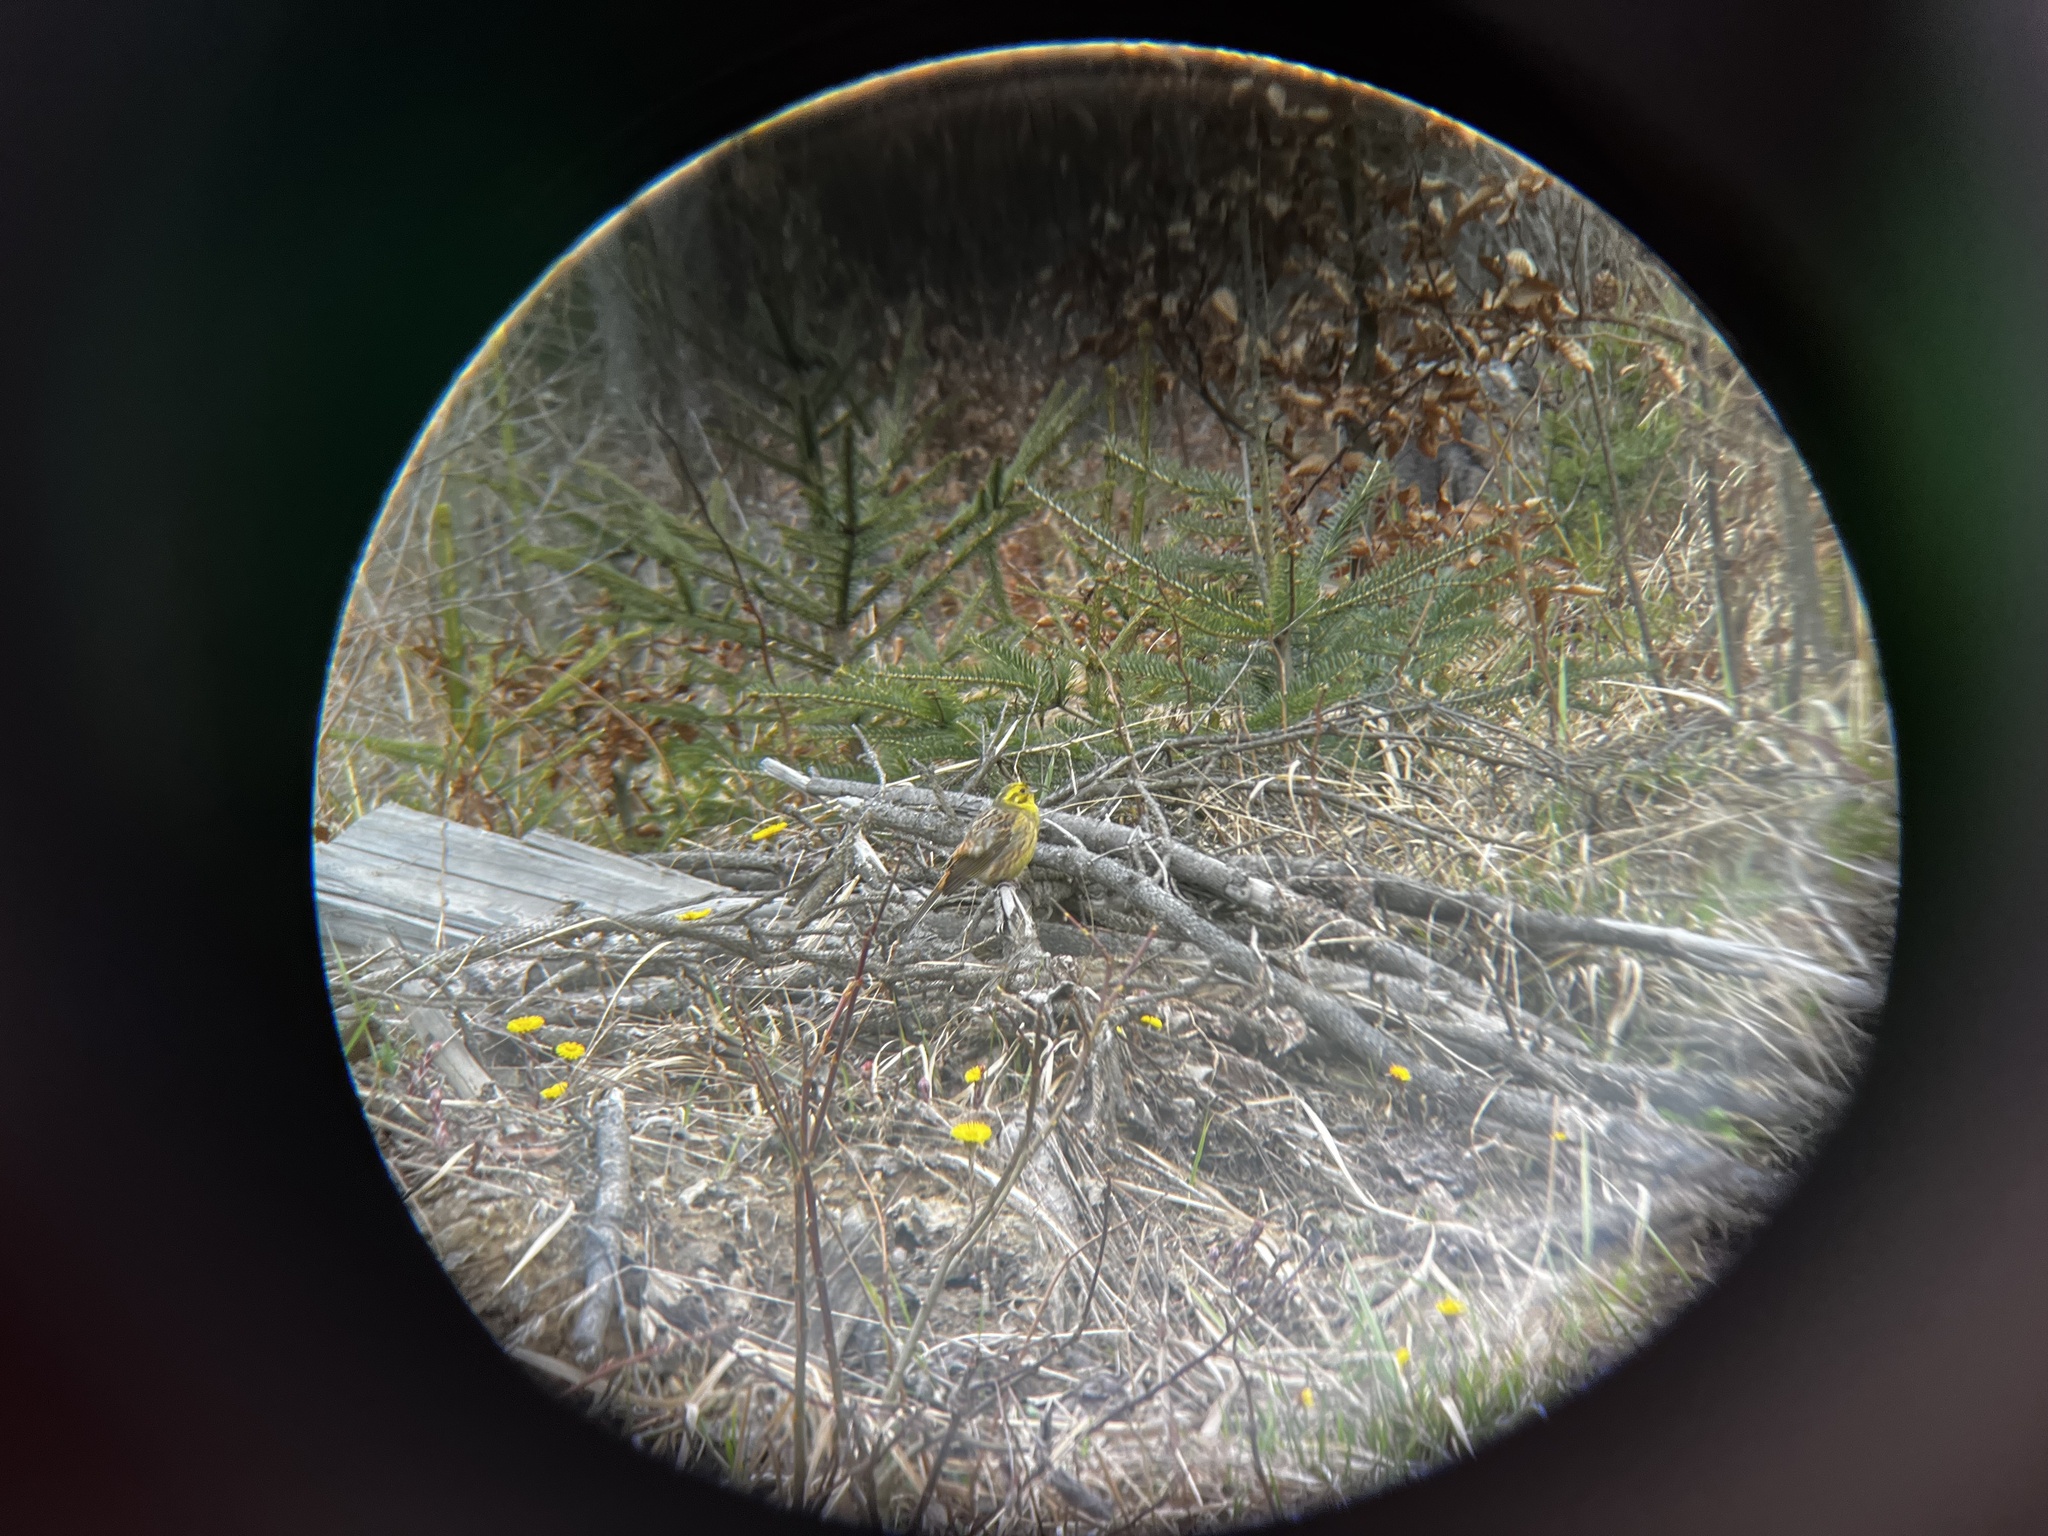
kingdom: Animalia
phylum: Chordata
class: Aves
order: Passeriformes
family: Emberizidae
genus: Emberiza
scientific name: Emberiza citrinella
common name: Yellowhammer
